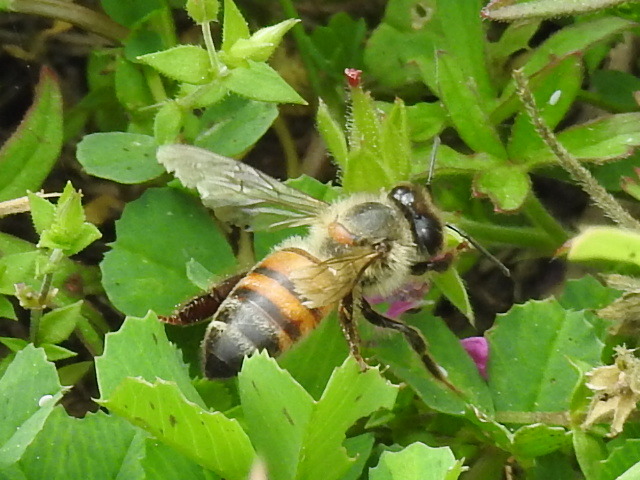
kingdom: Animalia
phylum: Arthropoda
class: Insecta
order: Hymenoptera
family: Apidae
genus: Apis
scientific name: Apis mellifera
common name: Honey bee
